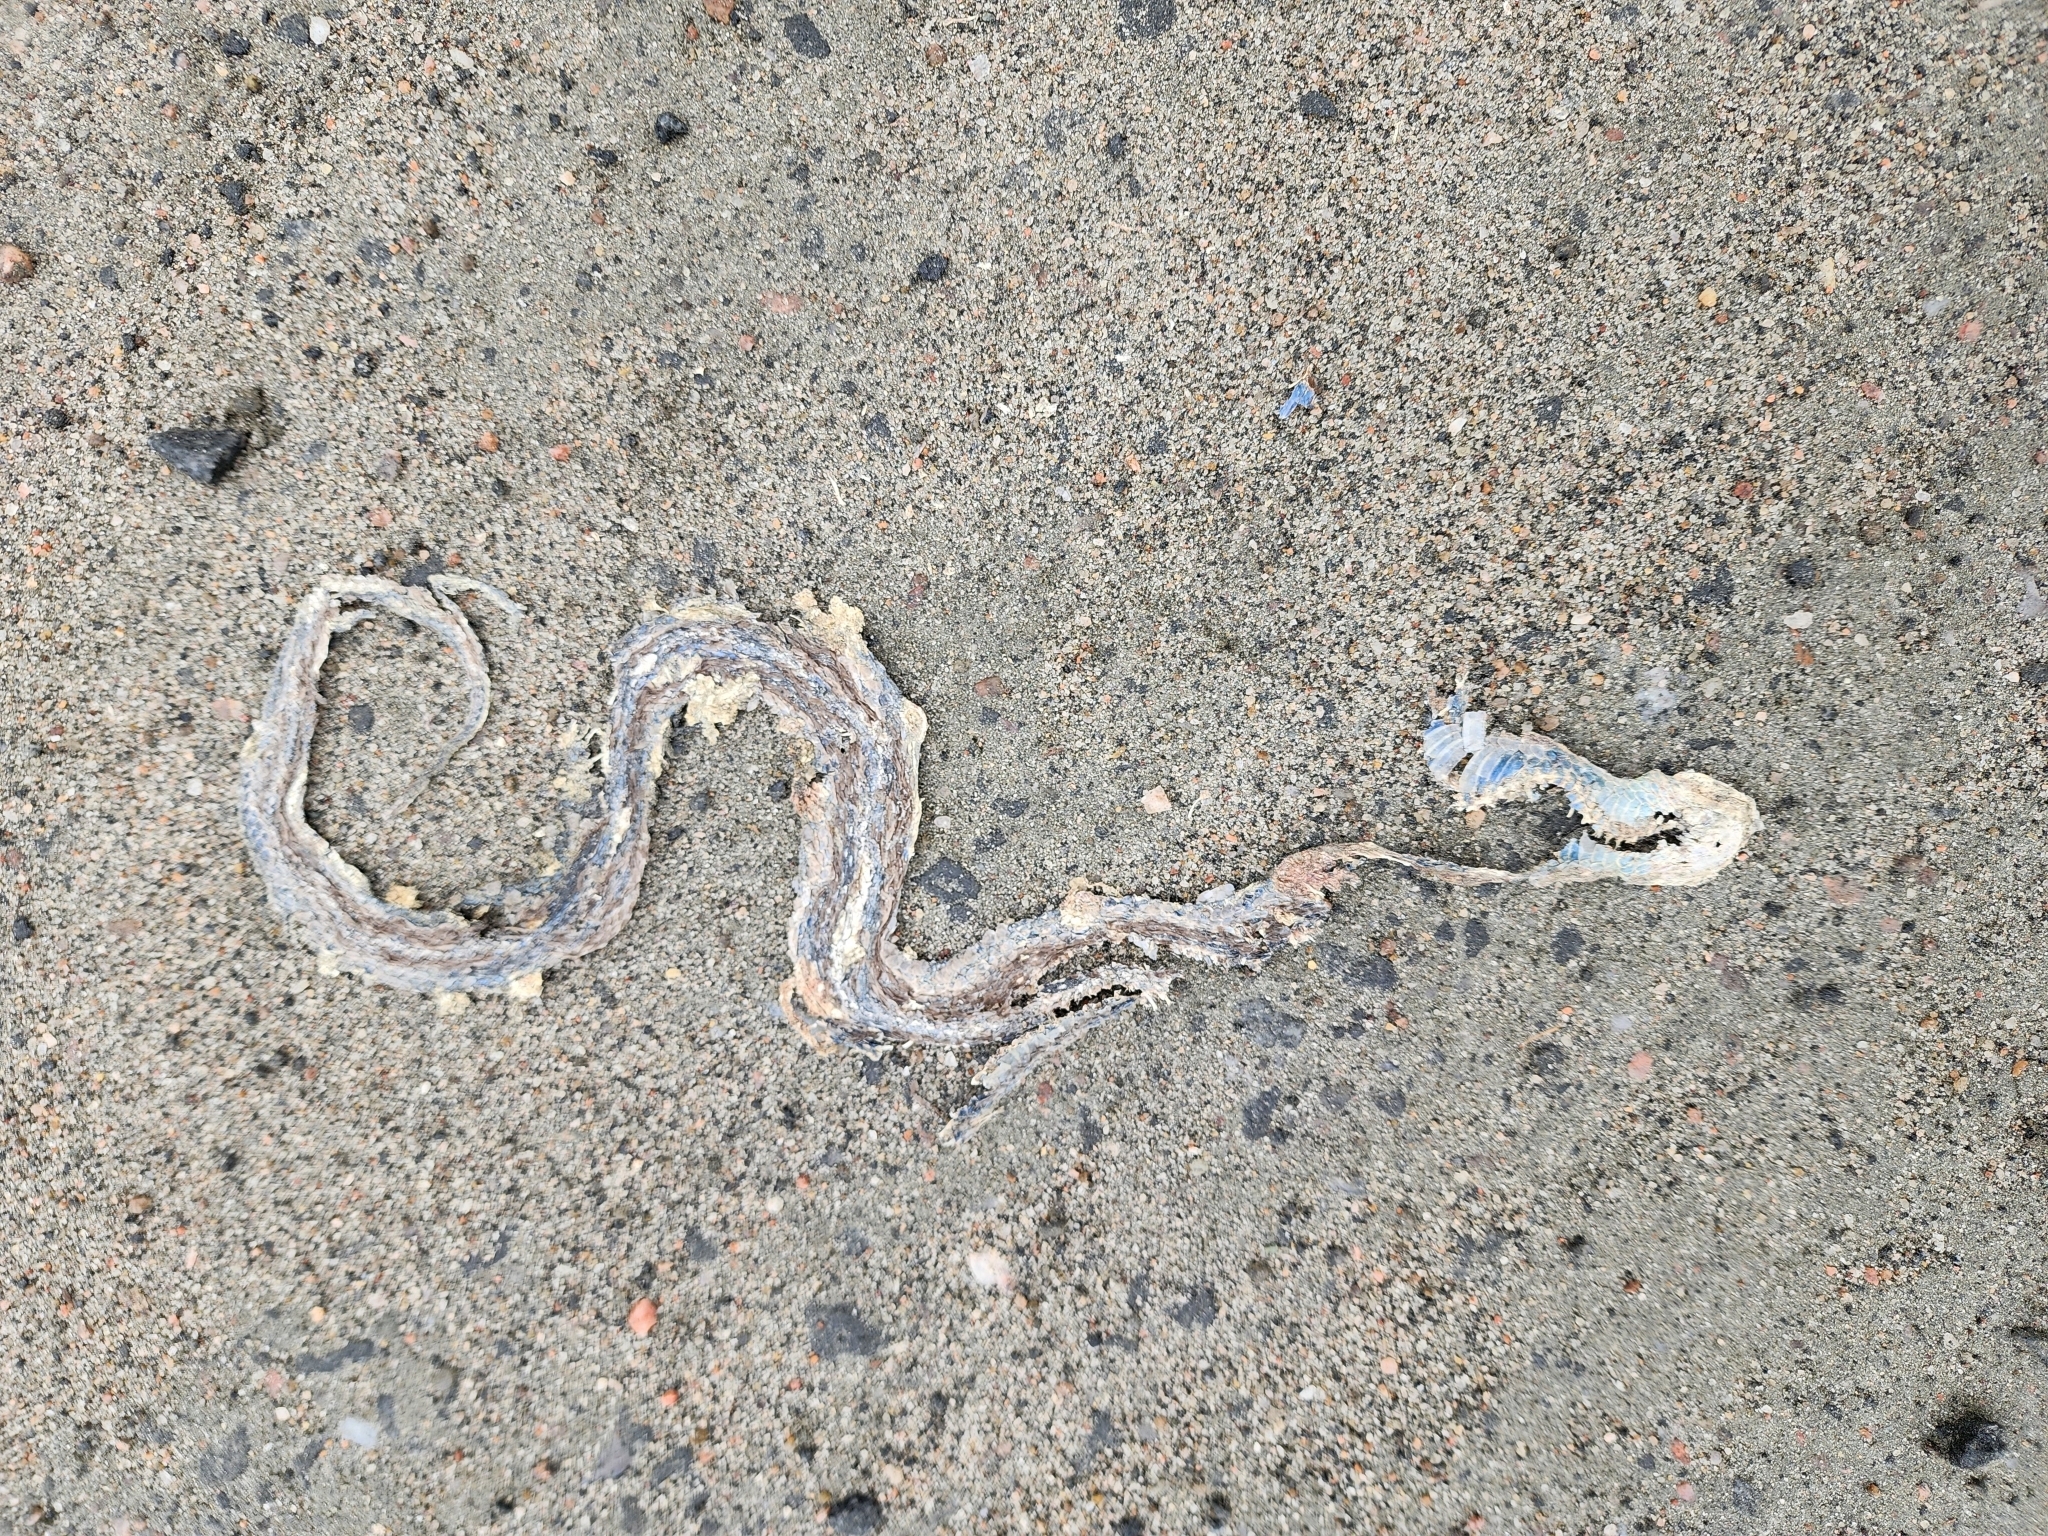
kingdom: Animalia
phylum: Chordata
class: Squamata
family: Colubridae
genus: Thamnophis
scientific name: Thamnophis sirtalis
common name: Common garter snake
